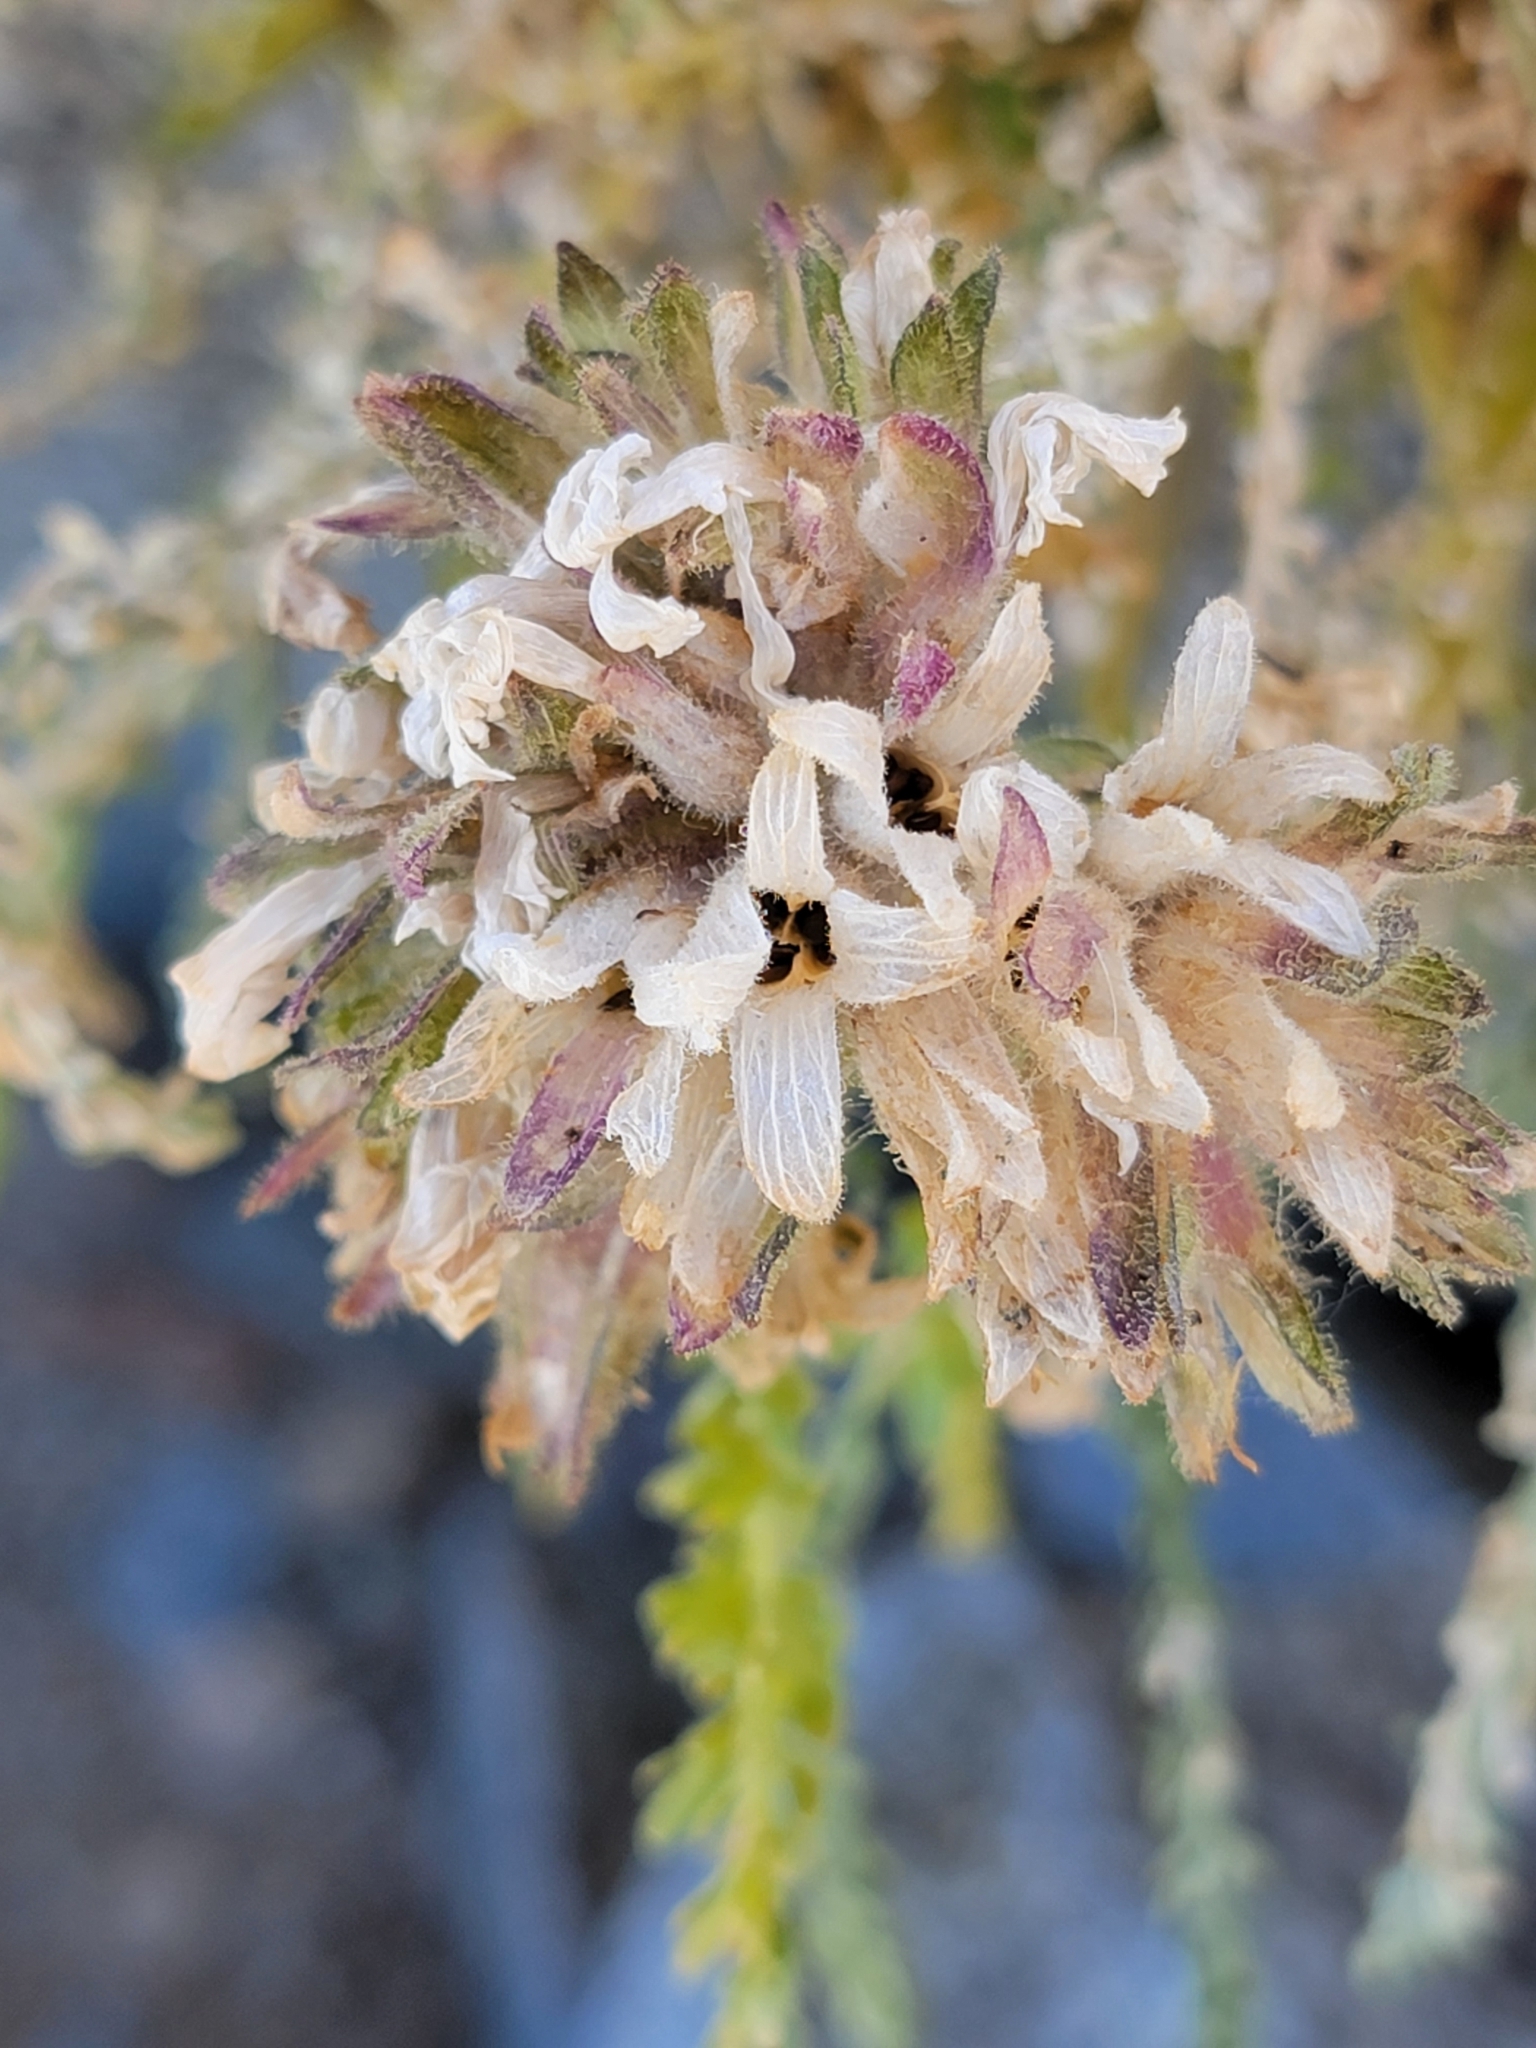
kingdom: Plantae
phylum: Tracheophyta
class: Magnoliopsida
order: Ericales
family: Polemoniaceae
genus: Polemonium
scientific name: Polemonium eximium
